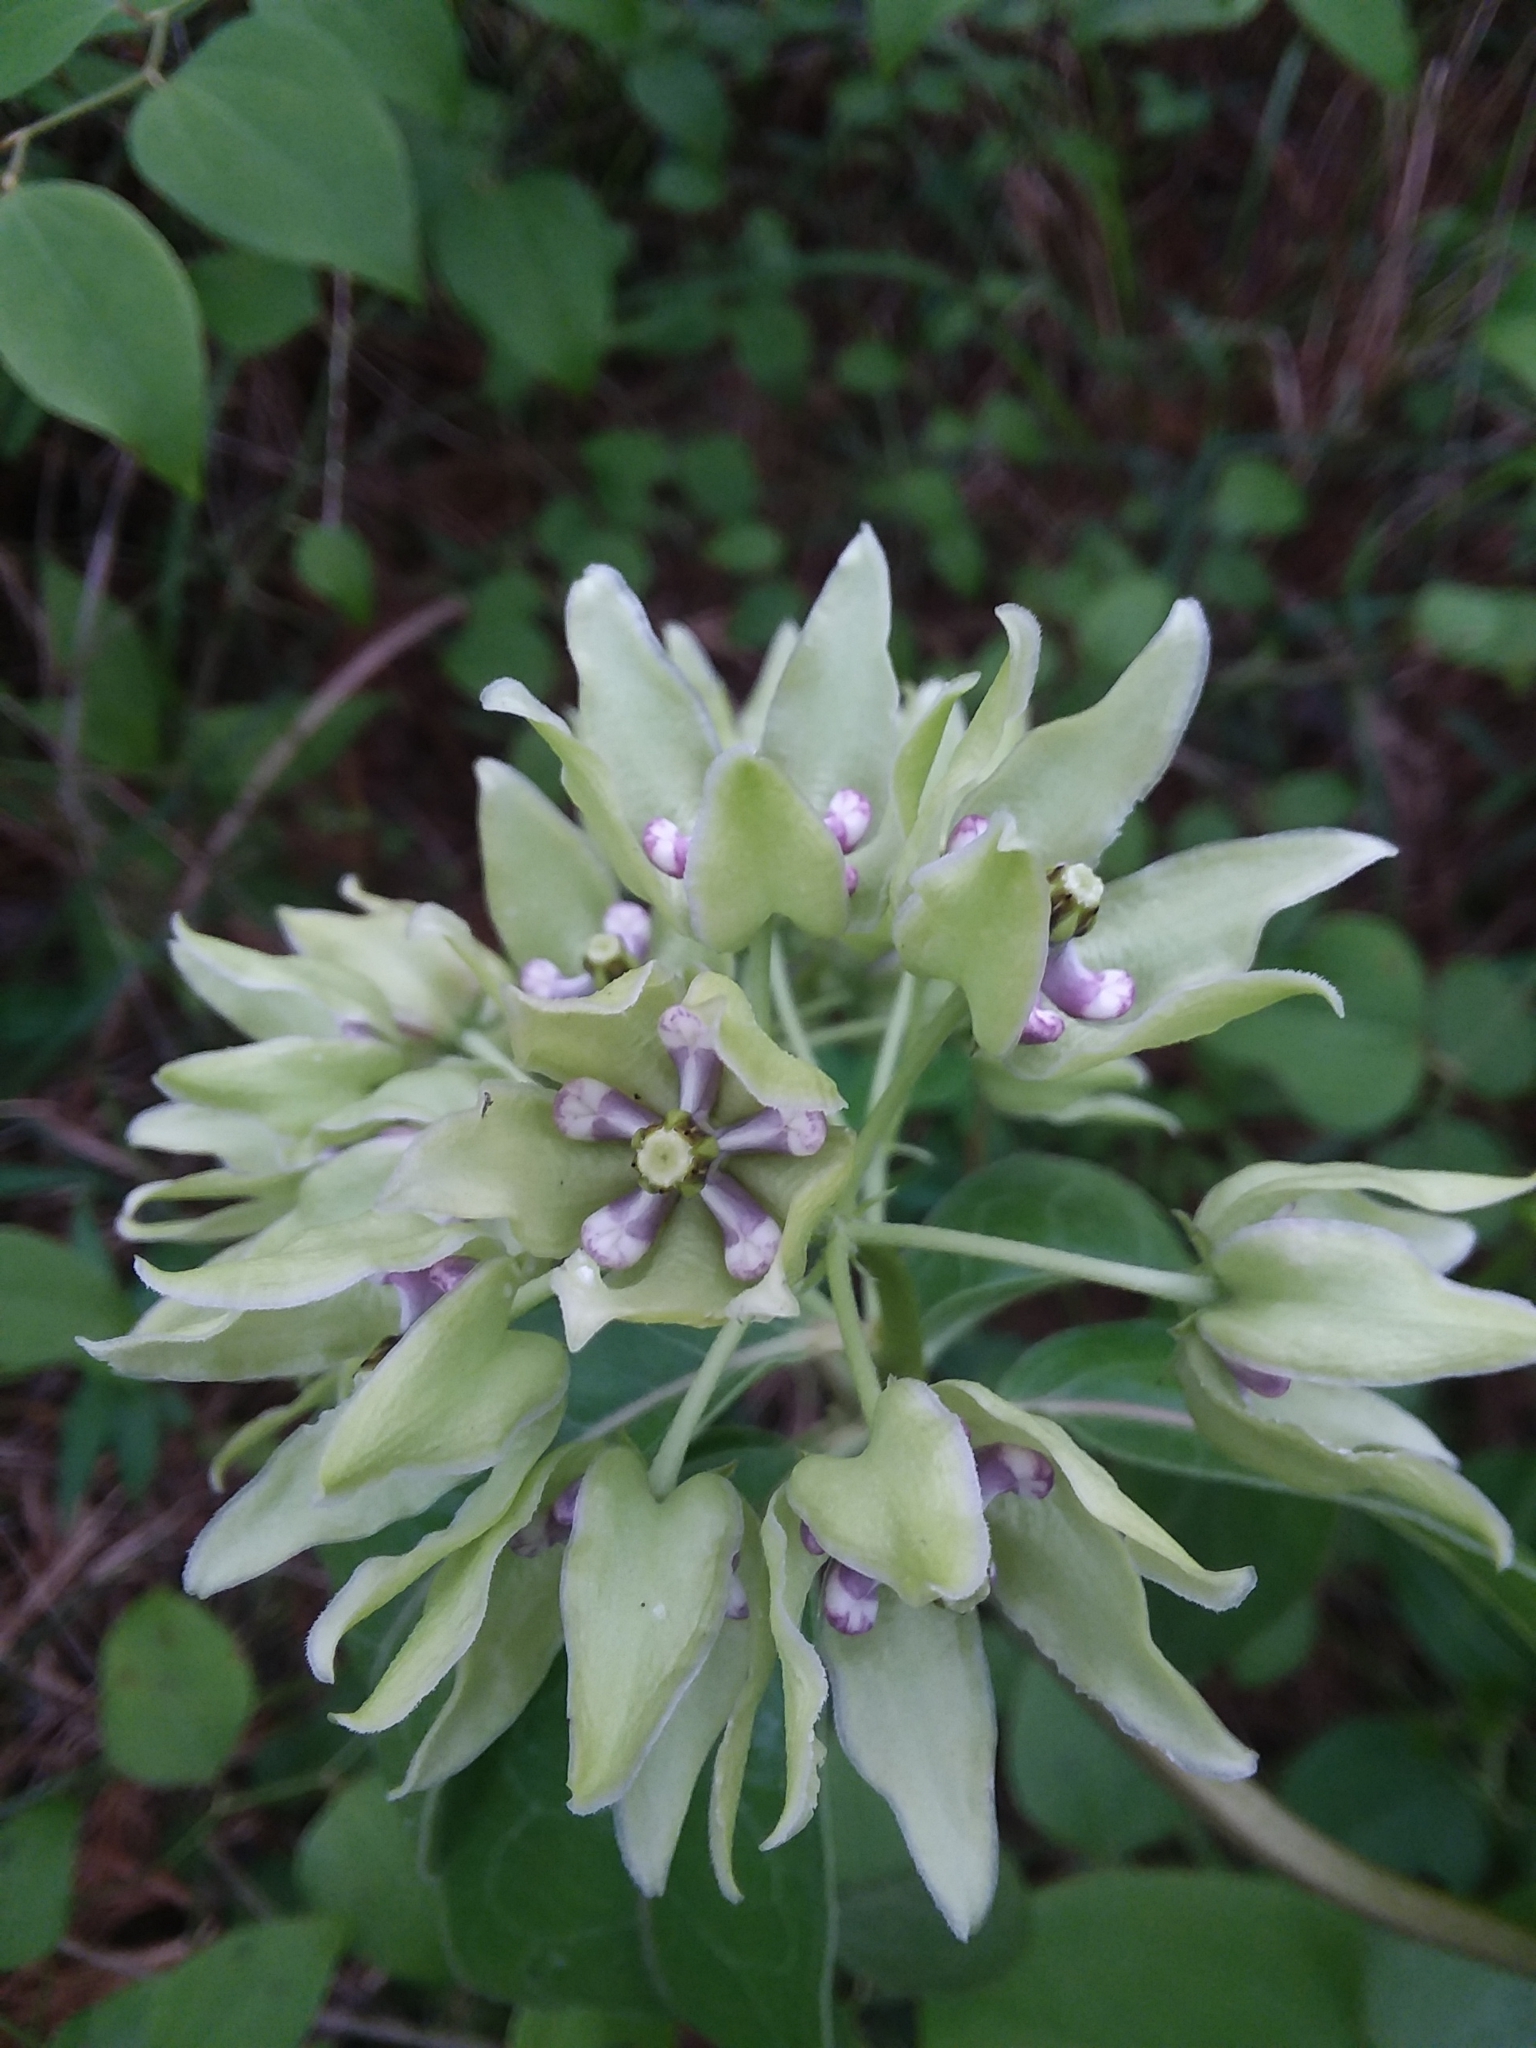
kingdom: Plantae
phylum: Tracheophyta
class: Magnoliopsida
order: Gentianales
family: Apocynaceae
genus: Asclepias
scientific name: Asclepias viridis
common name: Antelope-horns
